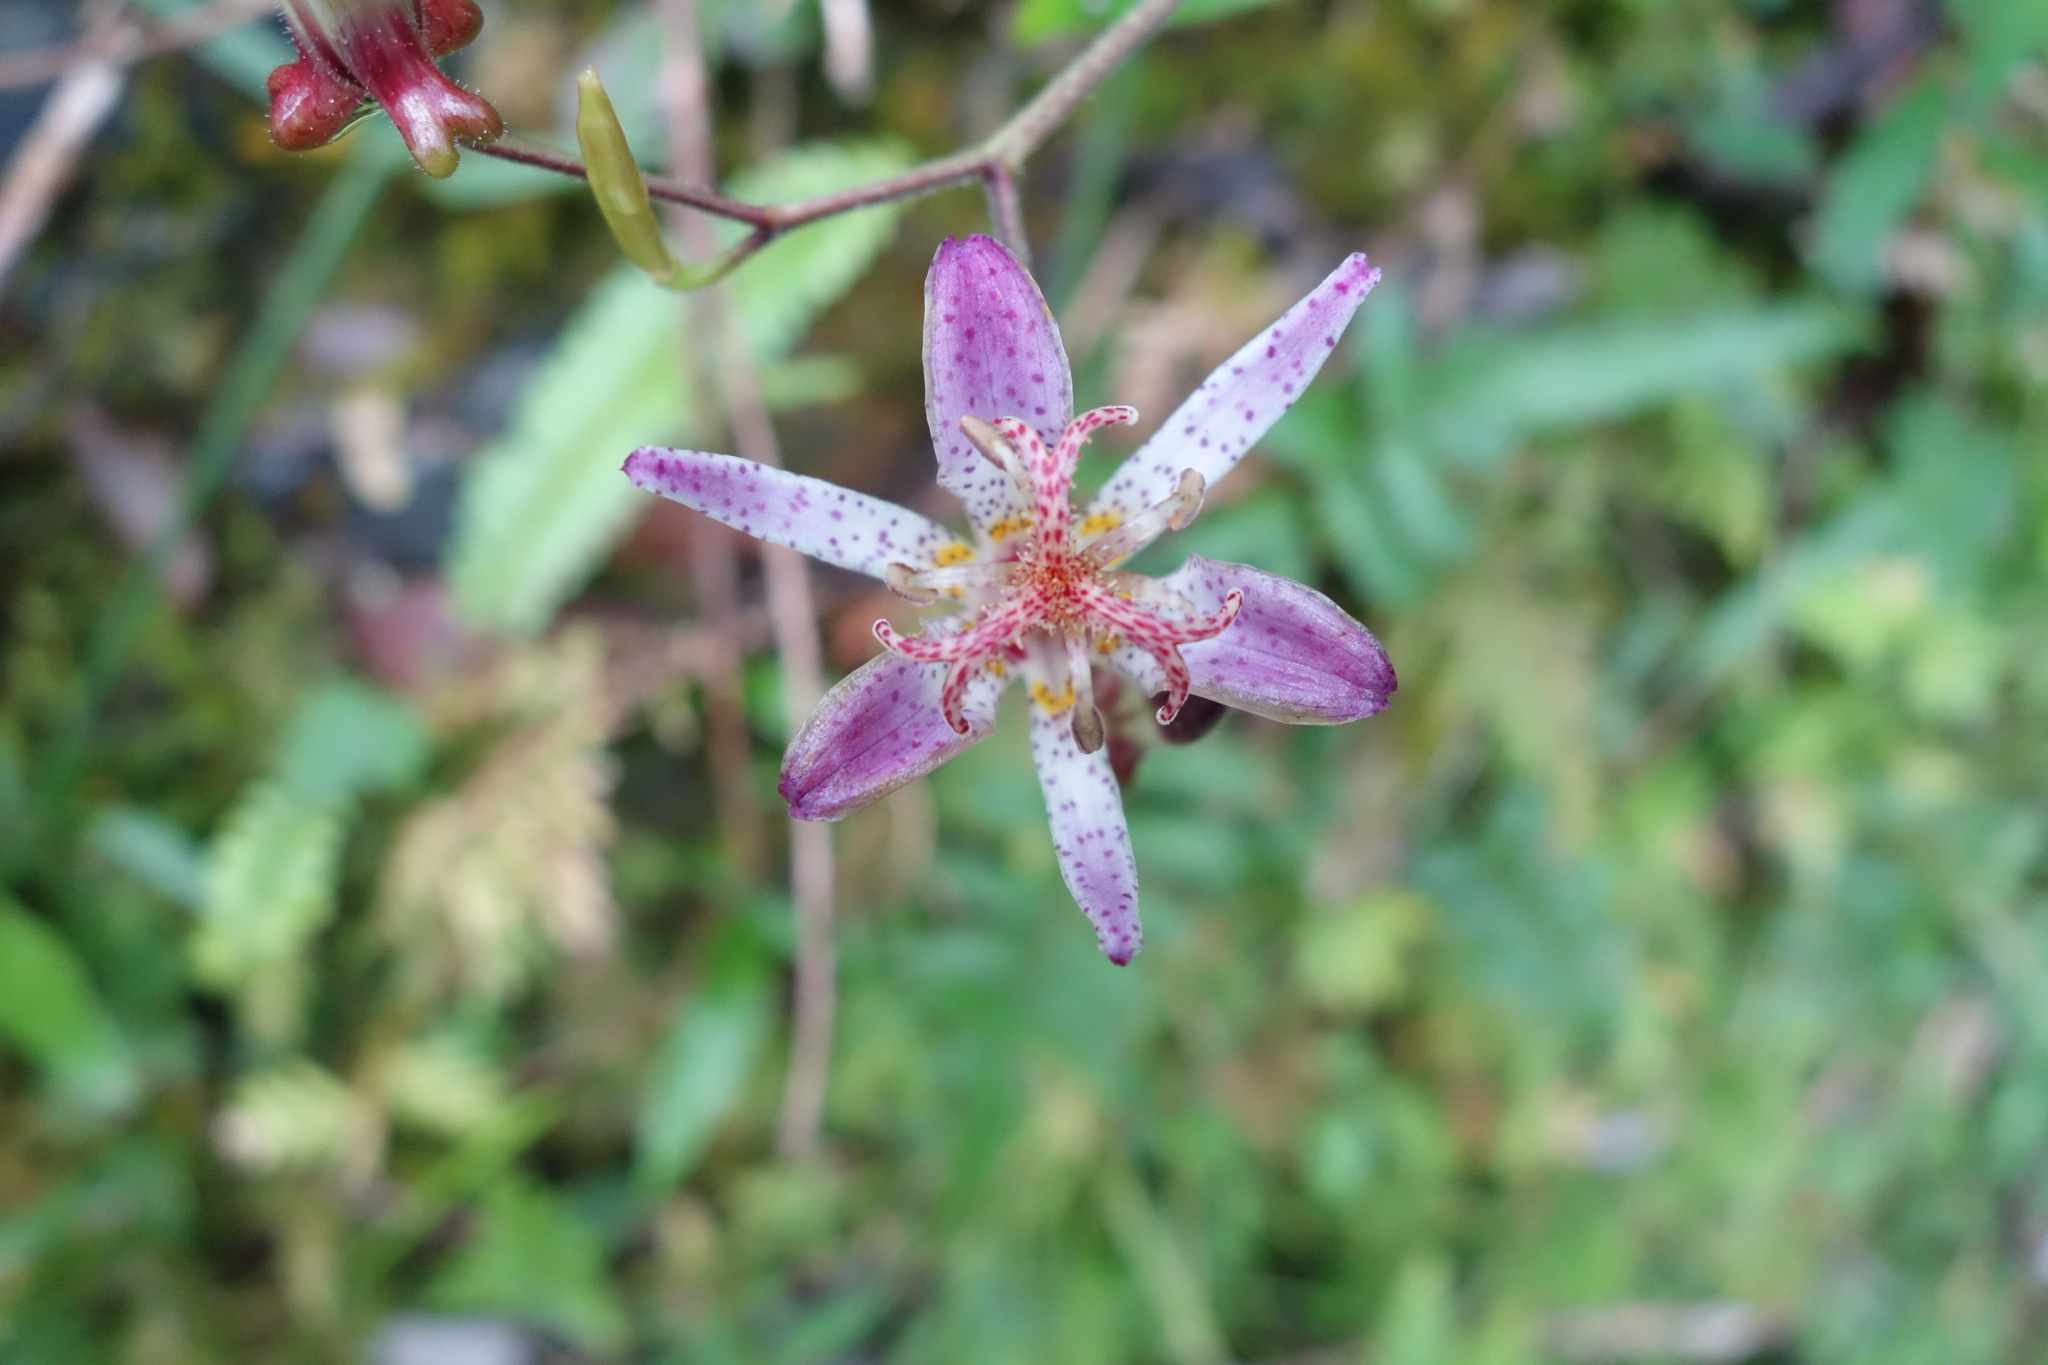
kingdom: Plantae
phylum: Tracheophyta
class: Liliopsida
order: Liliales
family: Liliaceae
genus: Tricyrtis
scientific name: Tricyrtis formosana
